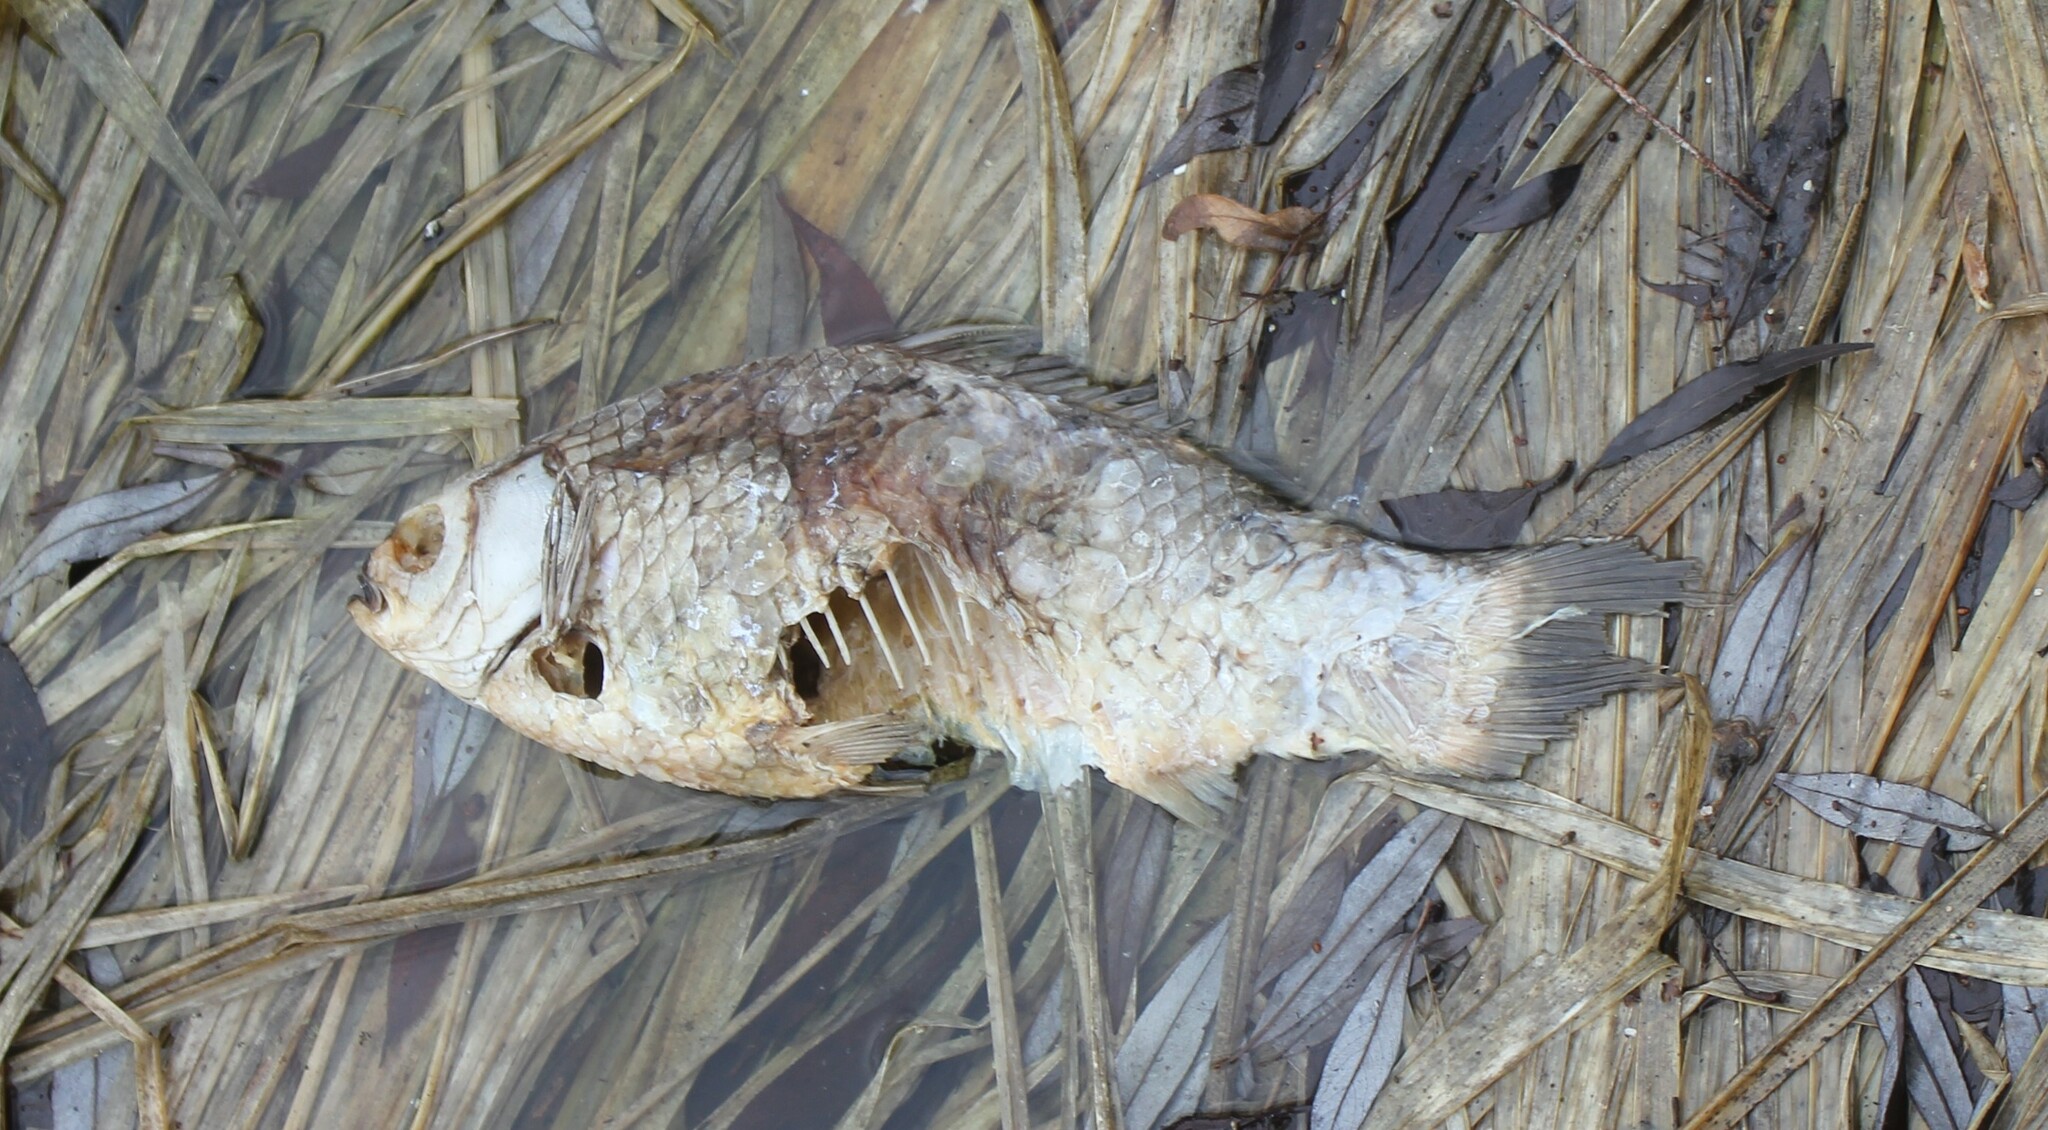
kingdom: Animalia
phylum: Chordata
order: Cypriniformes
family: Cyprinidae
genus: Carassius
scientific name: Carassius gibelio
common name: Prussian carp
